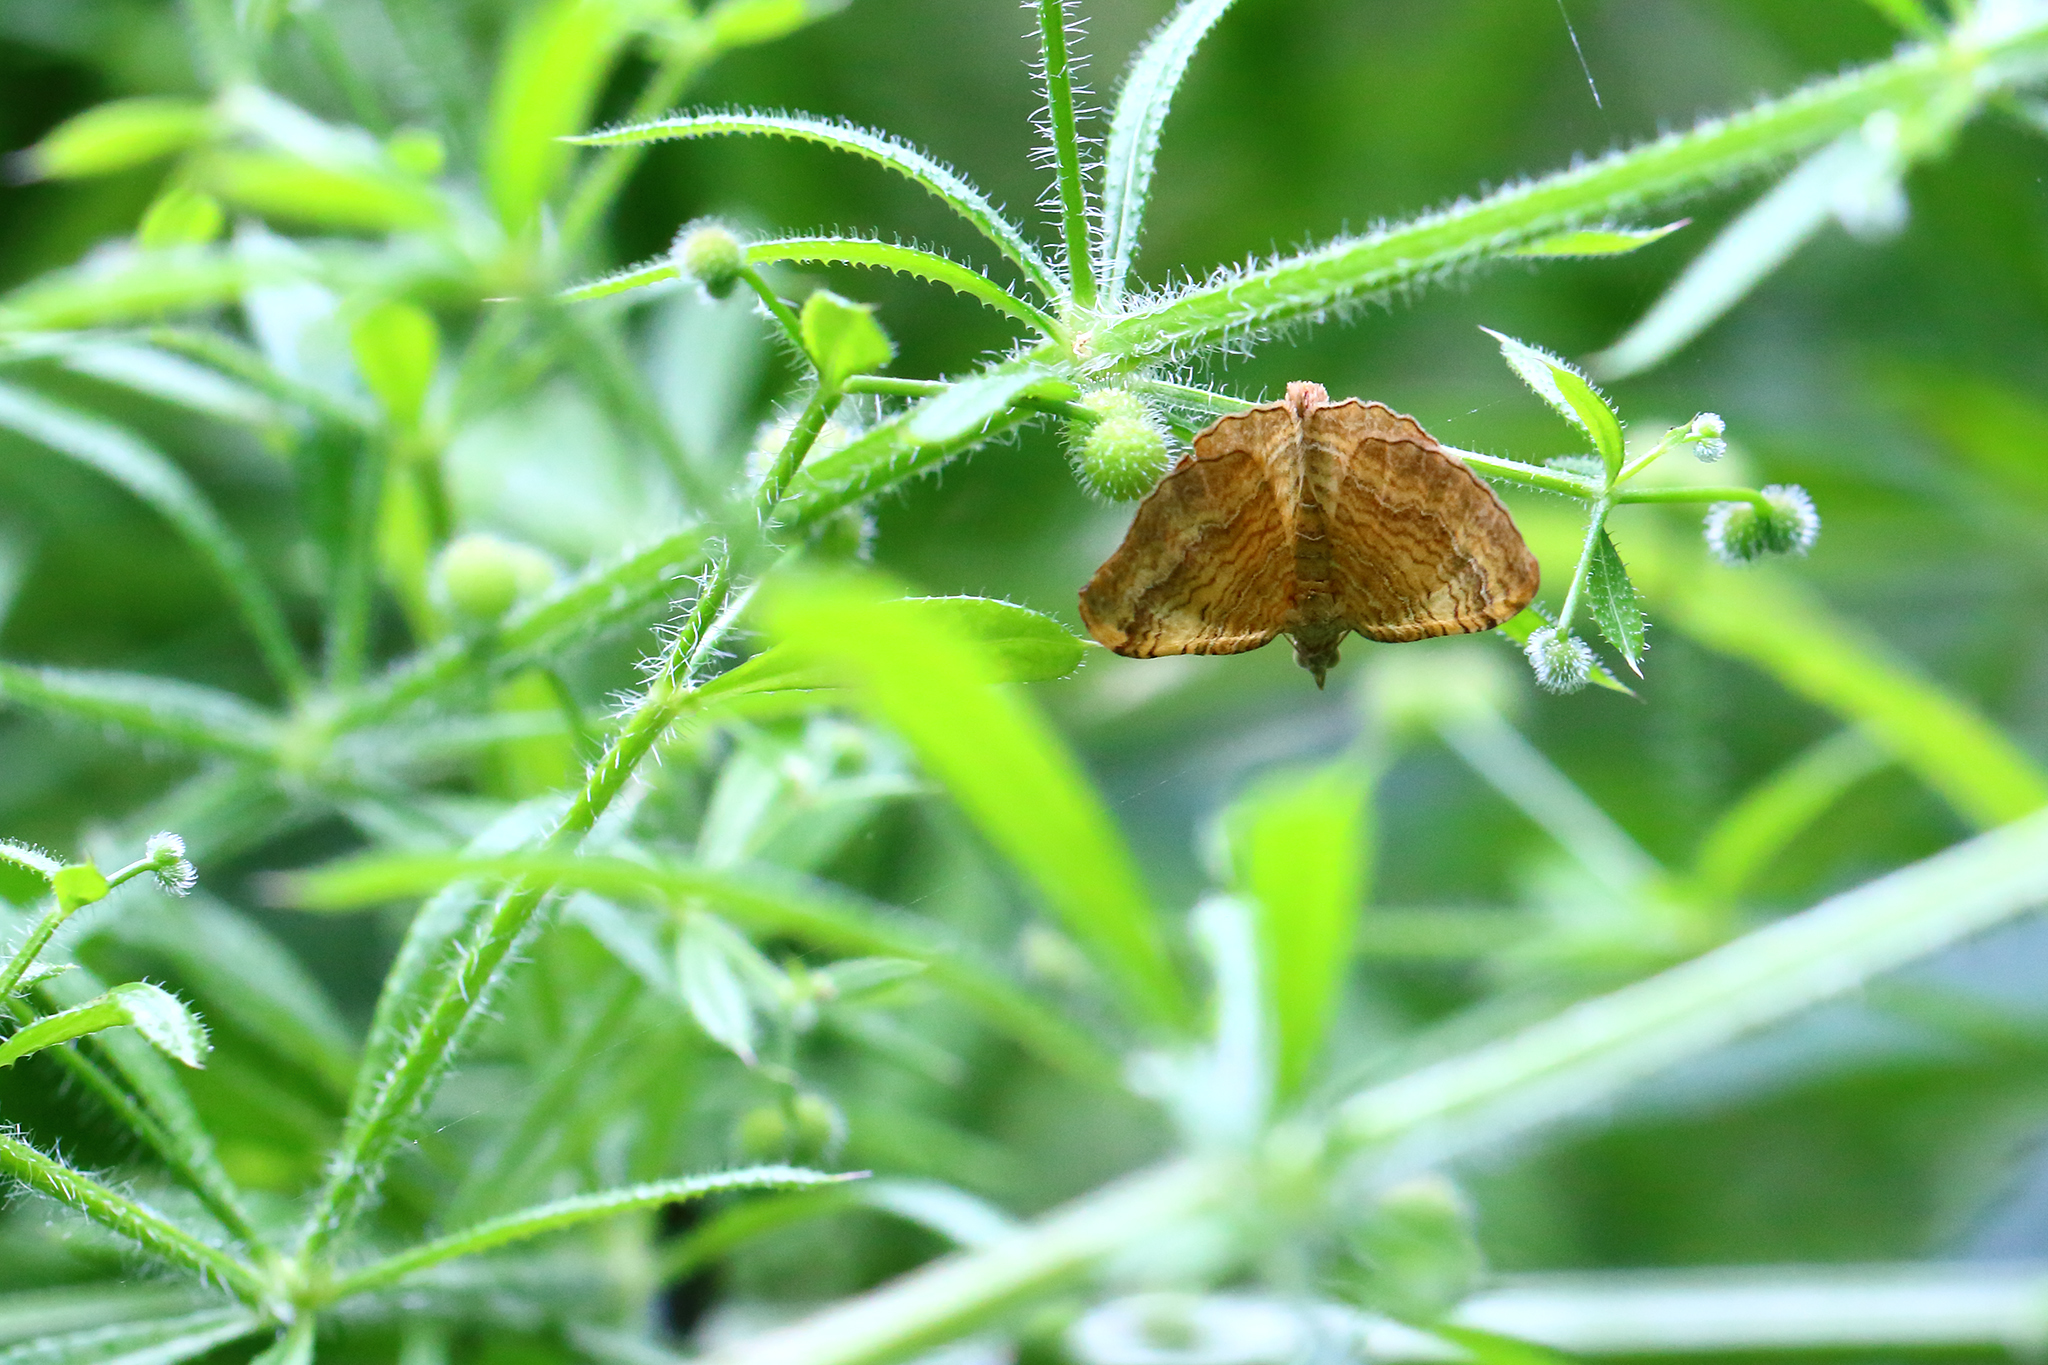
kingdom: Animalia
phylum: Arthropoda
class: Insecta
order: Lepidoptera
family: Geometridae
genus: Camptogramma
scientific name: Camptogramma bilineata
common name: Yellow shell
